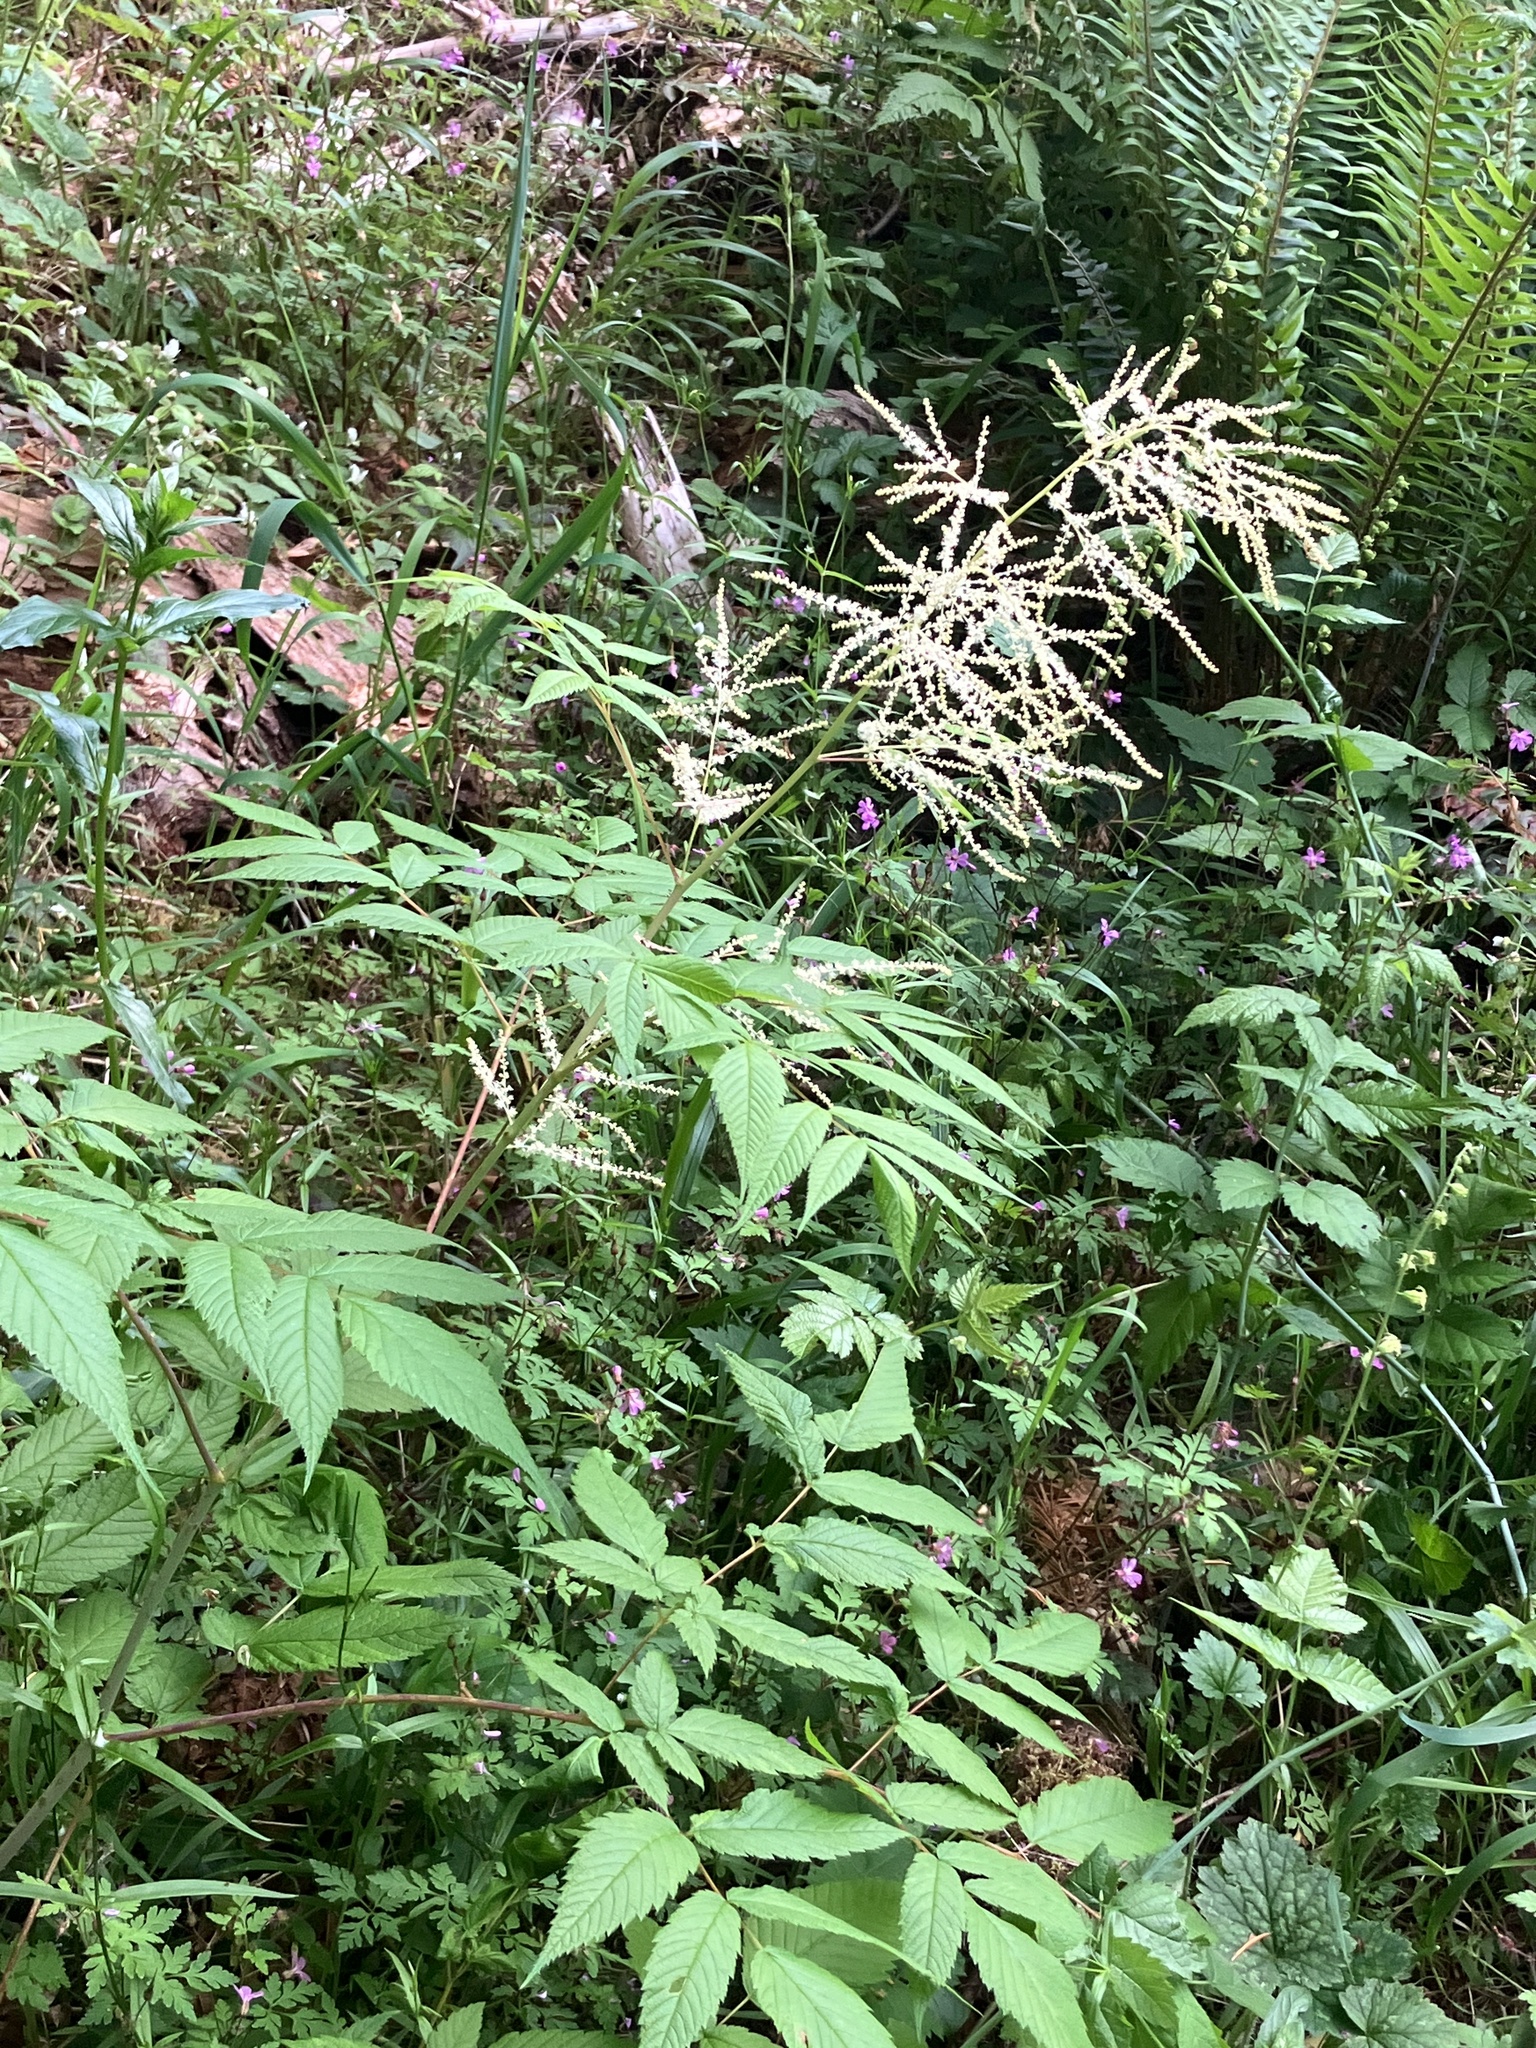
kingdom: Plantae
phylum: Tracheophyta
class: Magnoliopsida
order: Rosales
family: Rosaceae
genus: Aruncus
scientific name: Aruncus dioicus
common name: Buck's-beard
